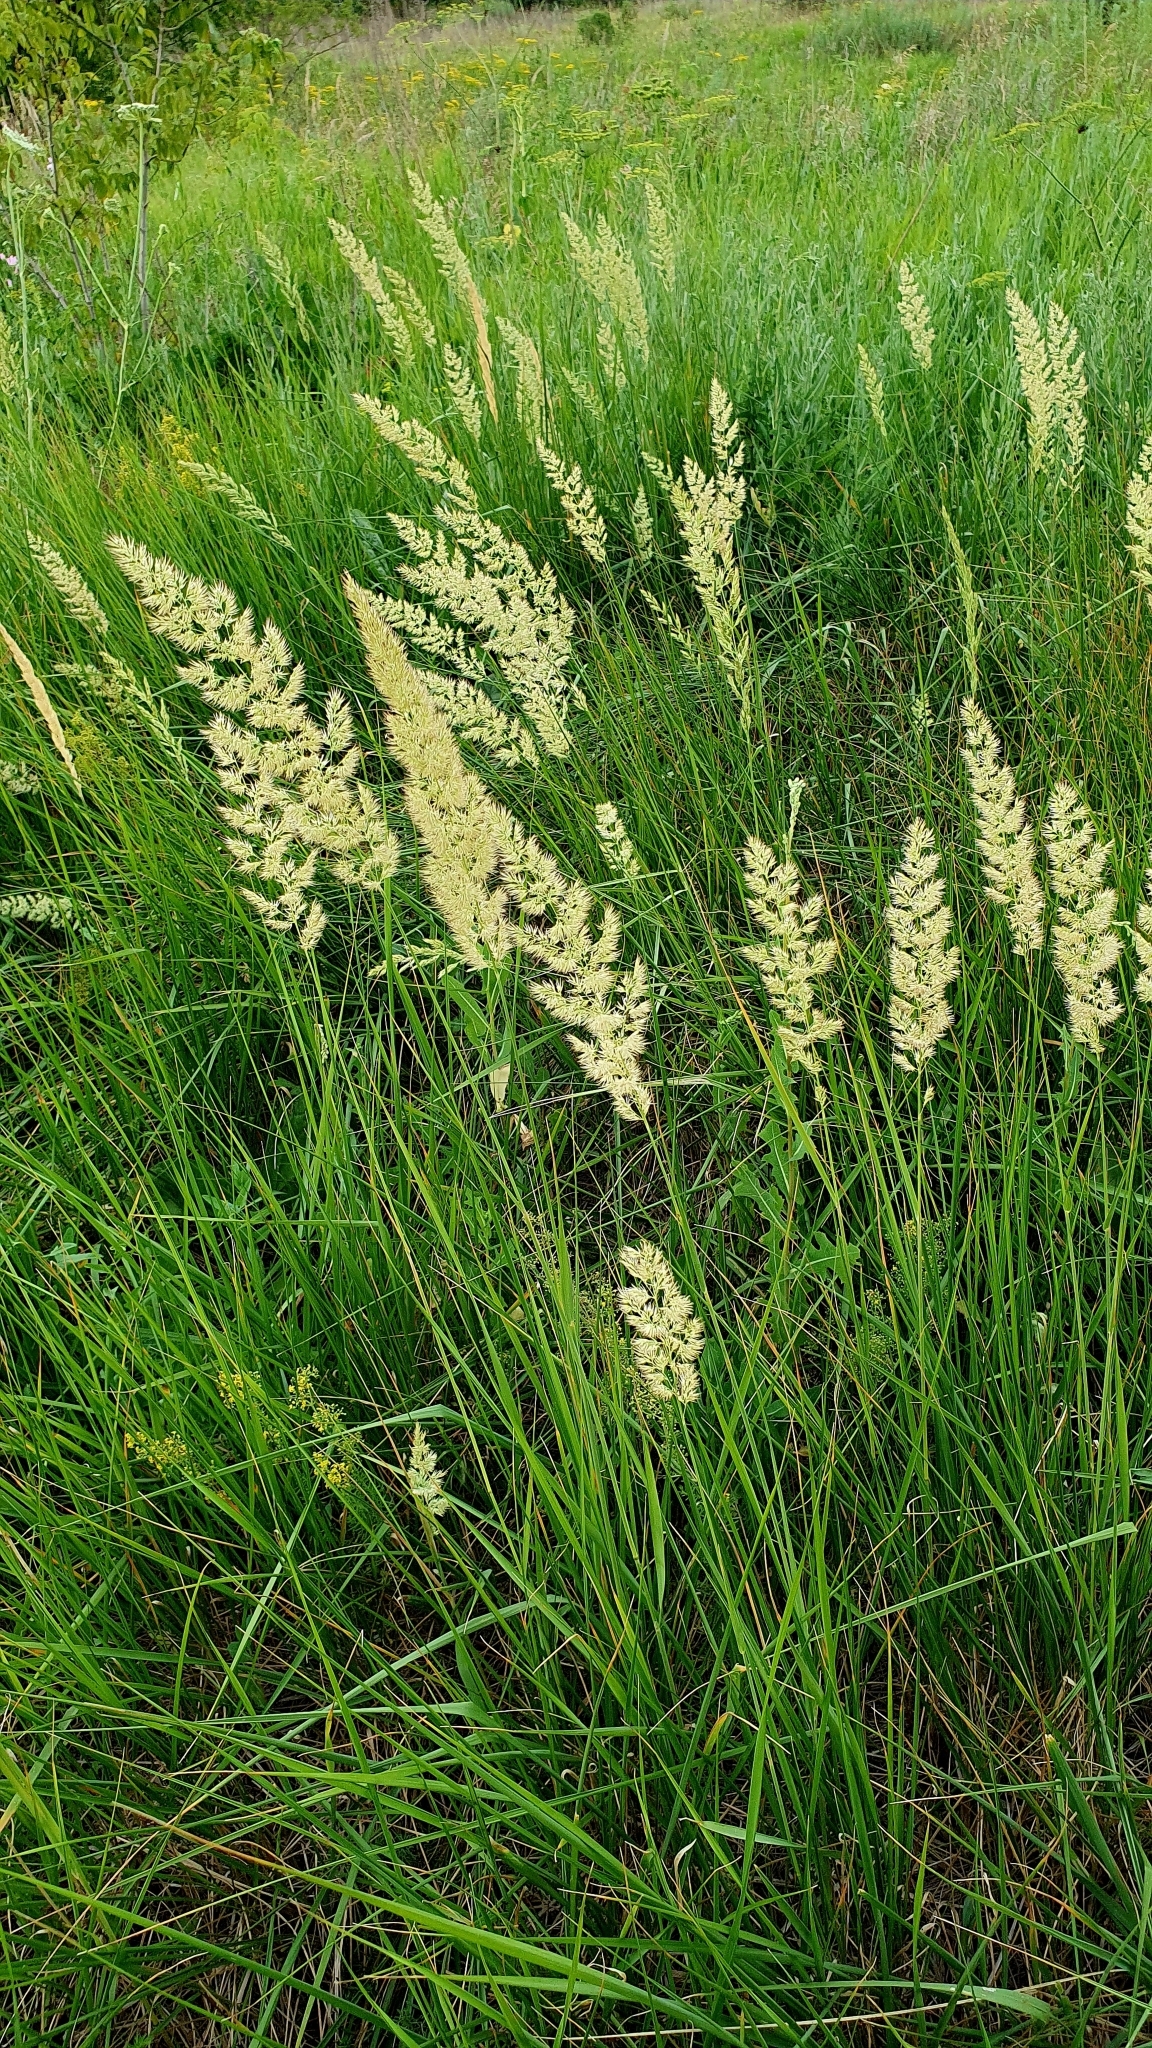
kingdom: Plantae
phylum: Tracheophyta
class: Liliopsida
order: Poales
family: Poaceae
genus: Calamagrostis
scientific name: Calamagrostis epigejos
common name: Wood small-reed
